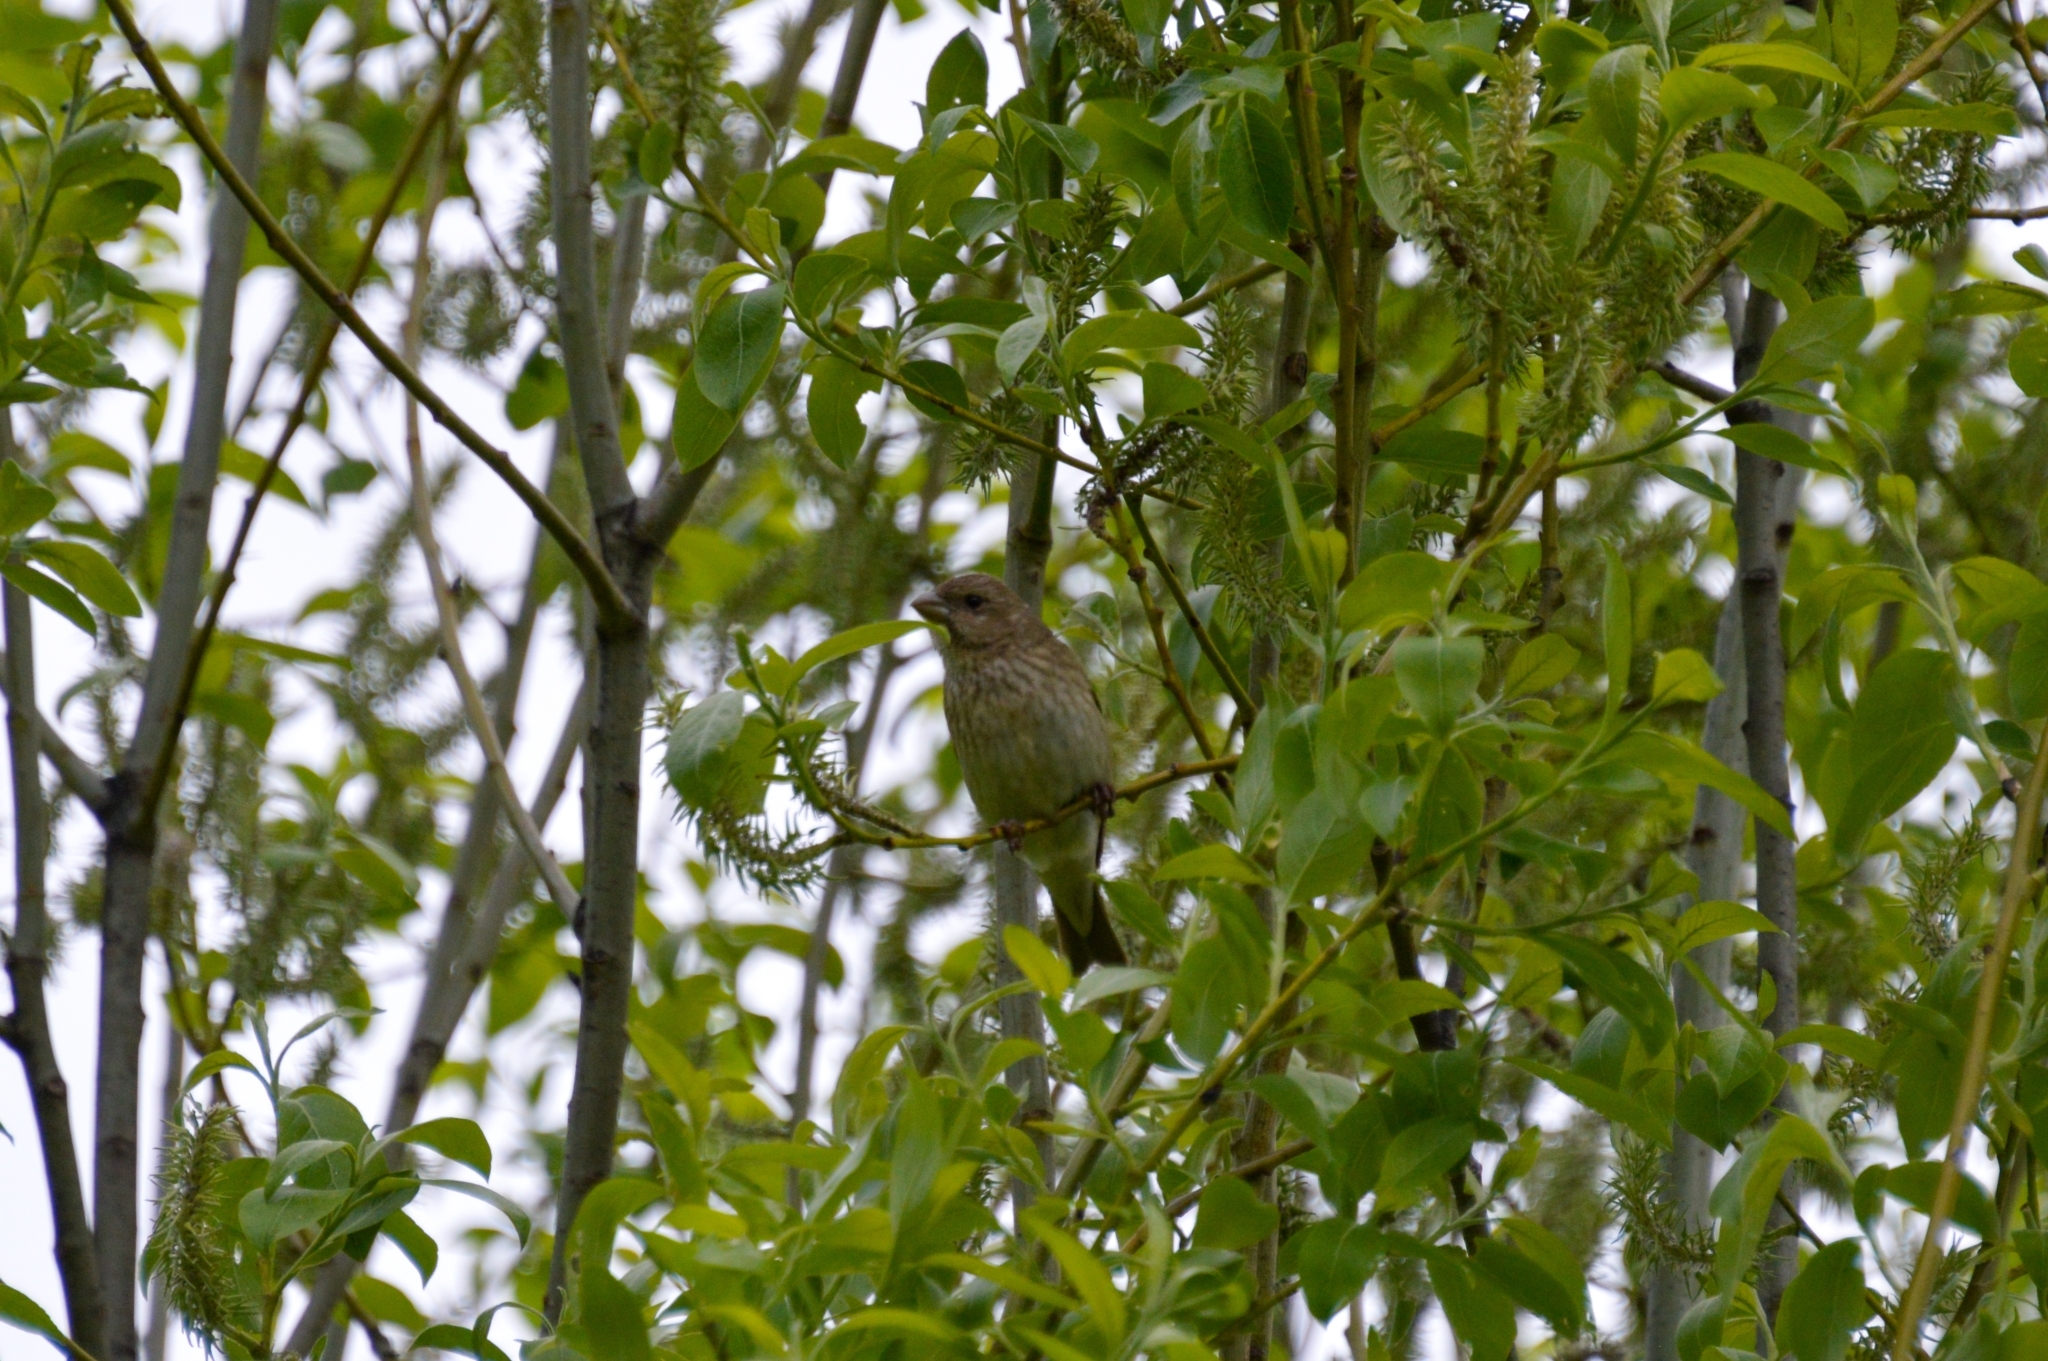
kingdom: Animalia
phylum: Chordata
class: Aves
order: Passeriformes
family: Fringillidae
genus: Carpodacus
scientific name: Carpodacus erythrinus
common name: Common rosefinch
